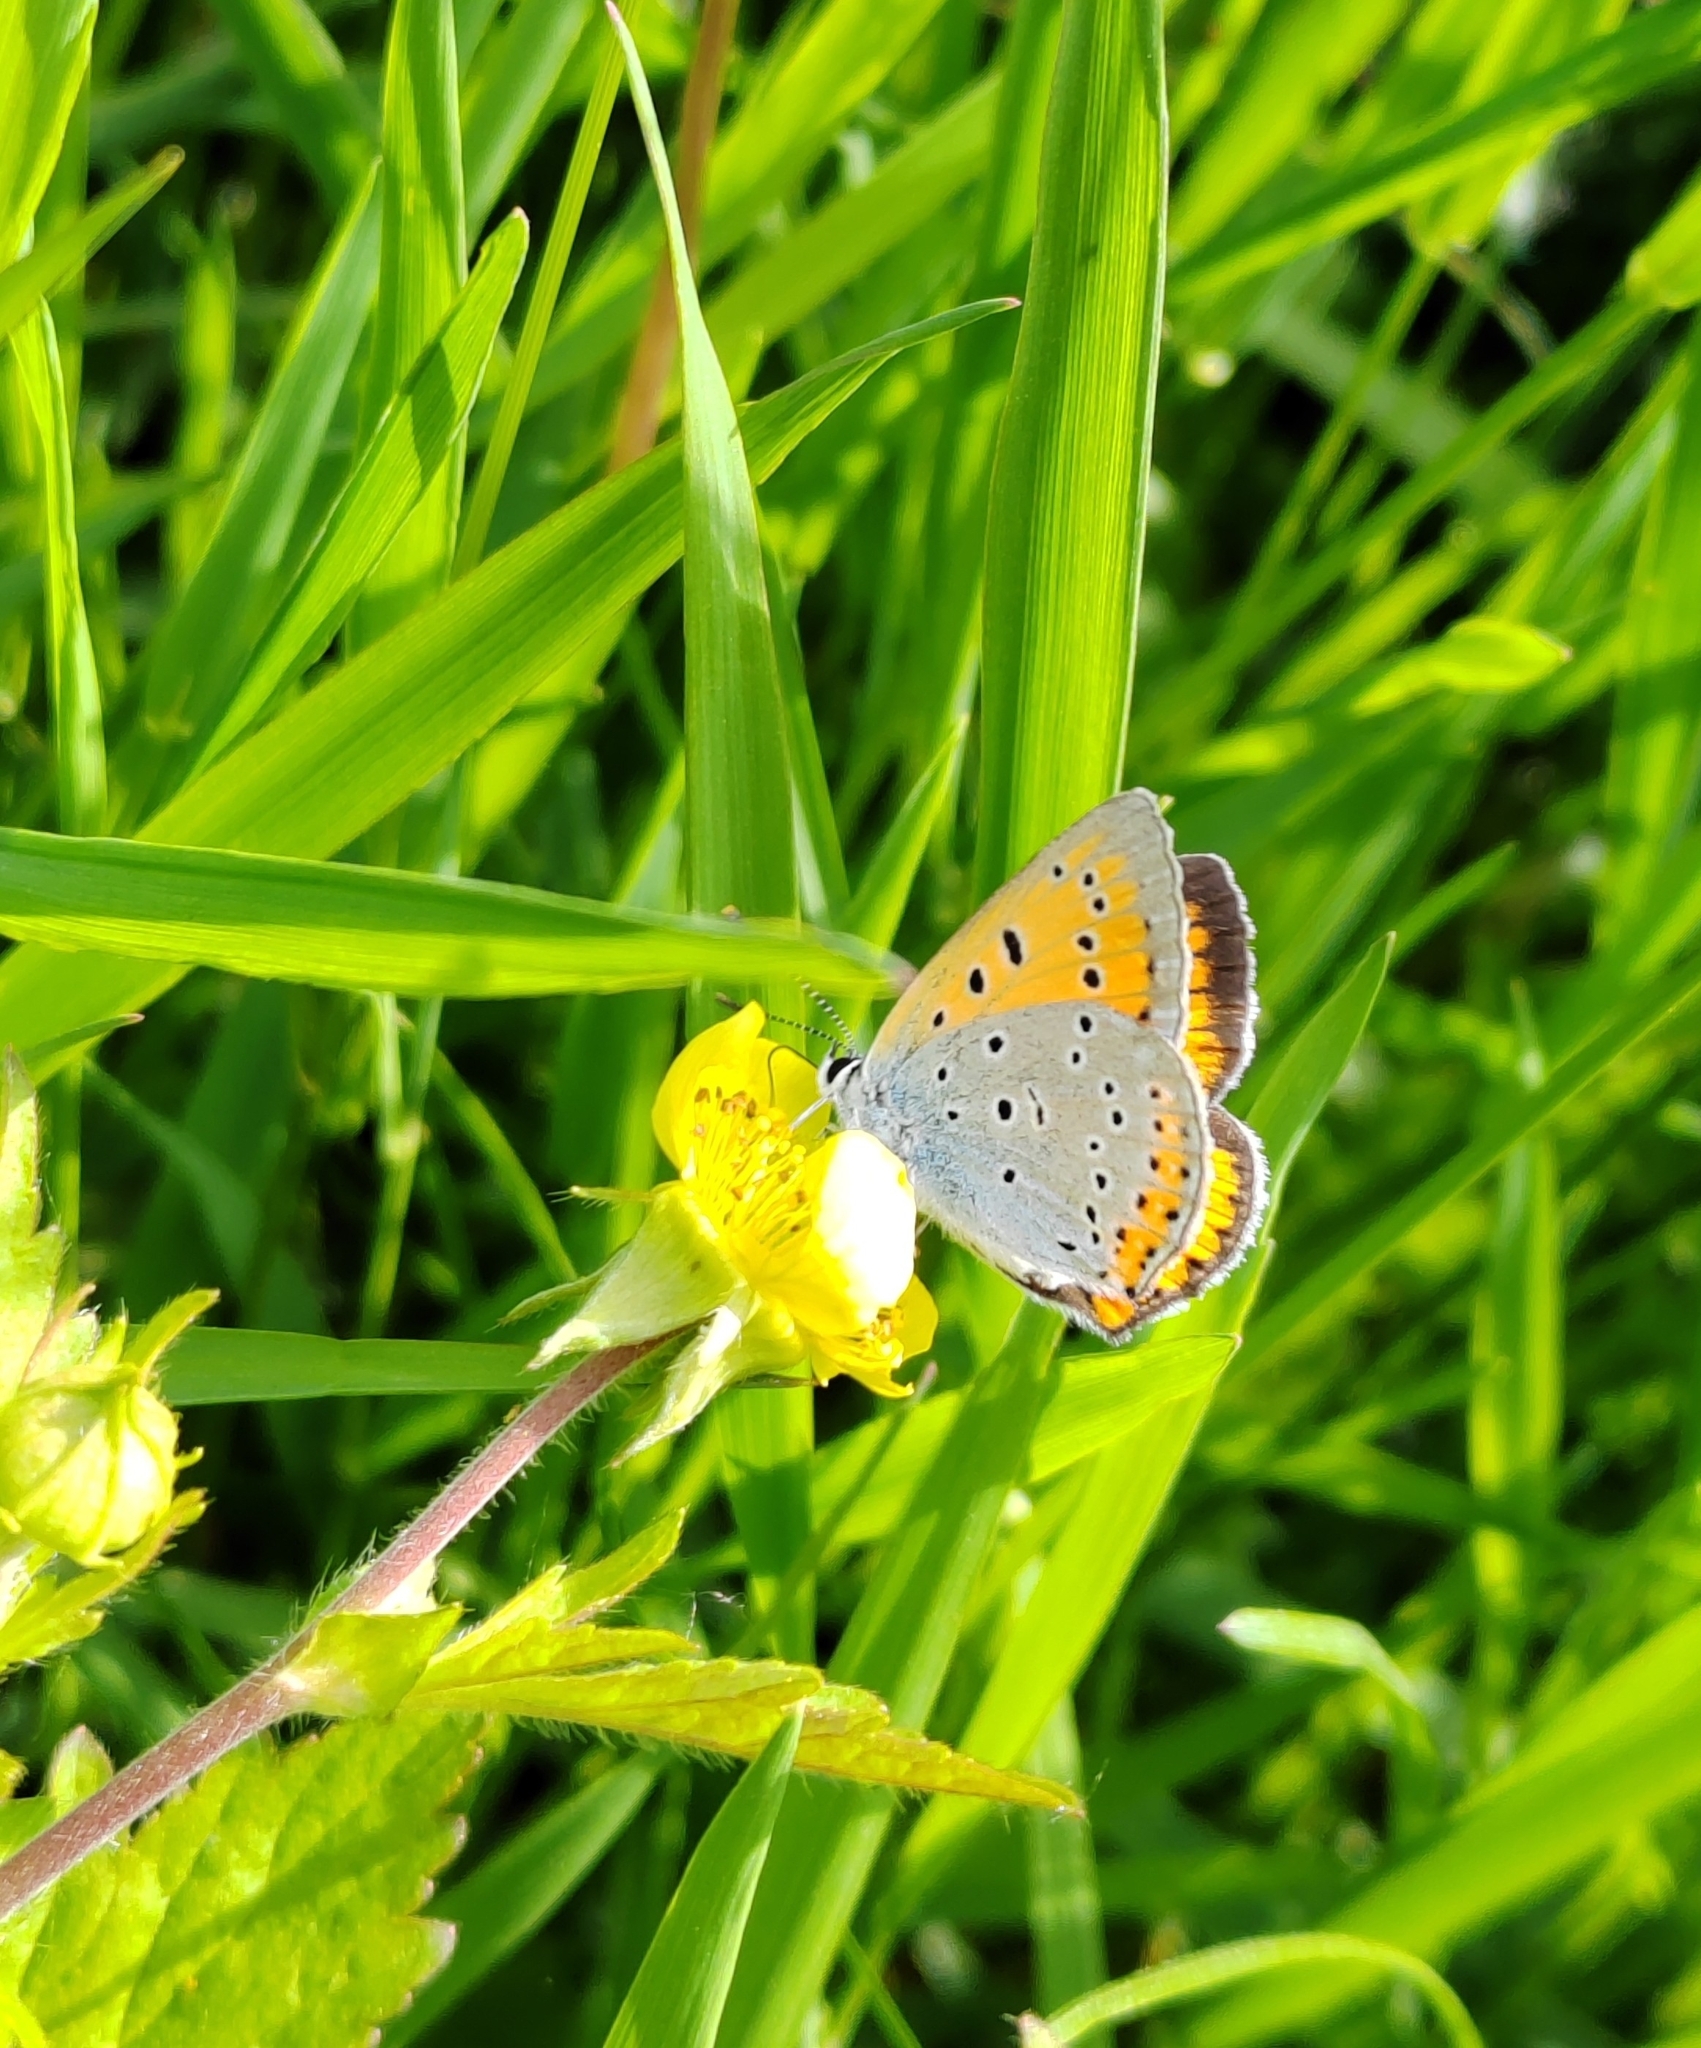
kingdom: Animalia
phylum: Arthropoda
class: Insecta
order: Lepidoptera
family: Lycaenidae
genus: Lycaena
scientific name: Lycaena dispar
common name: Large copper
